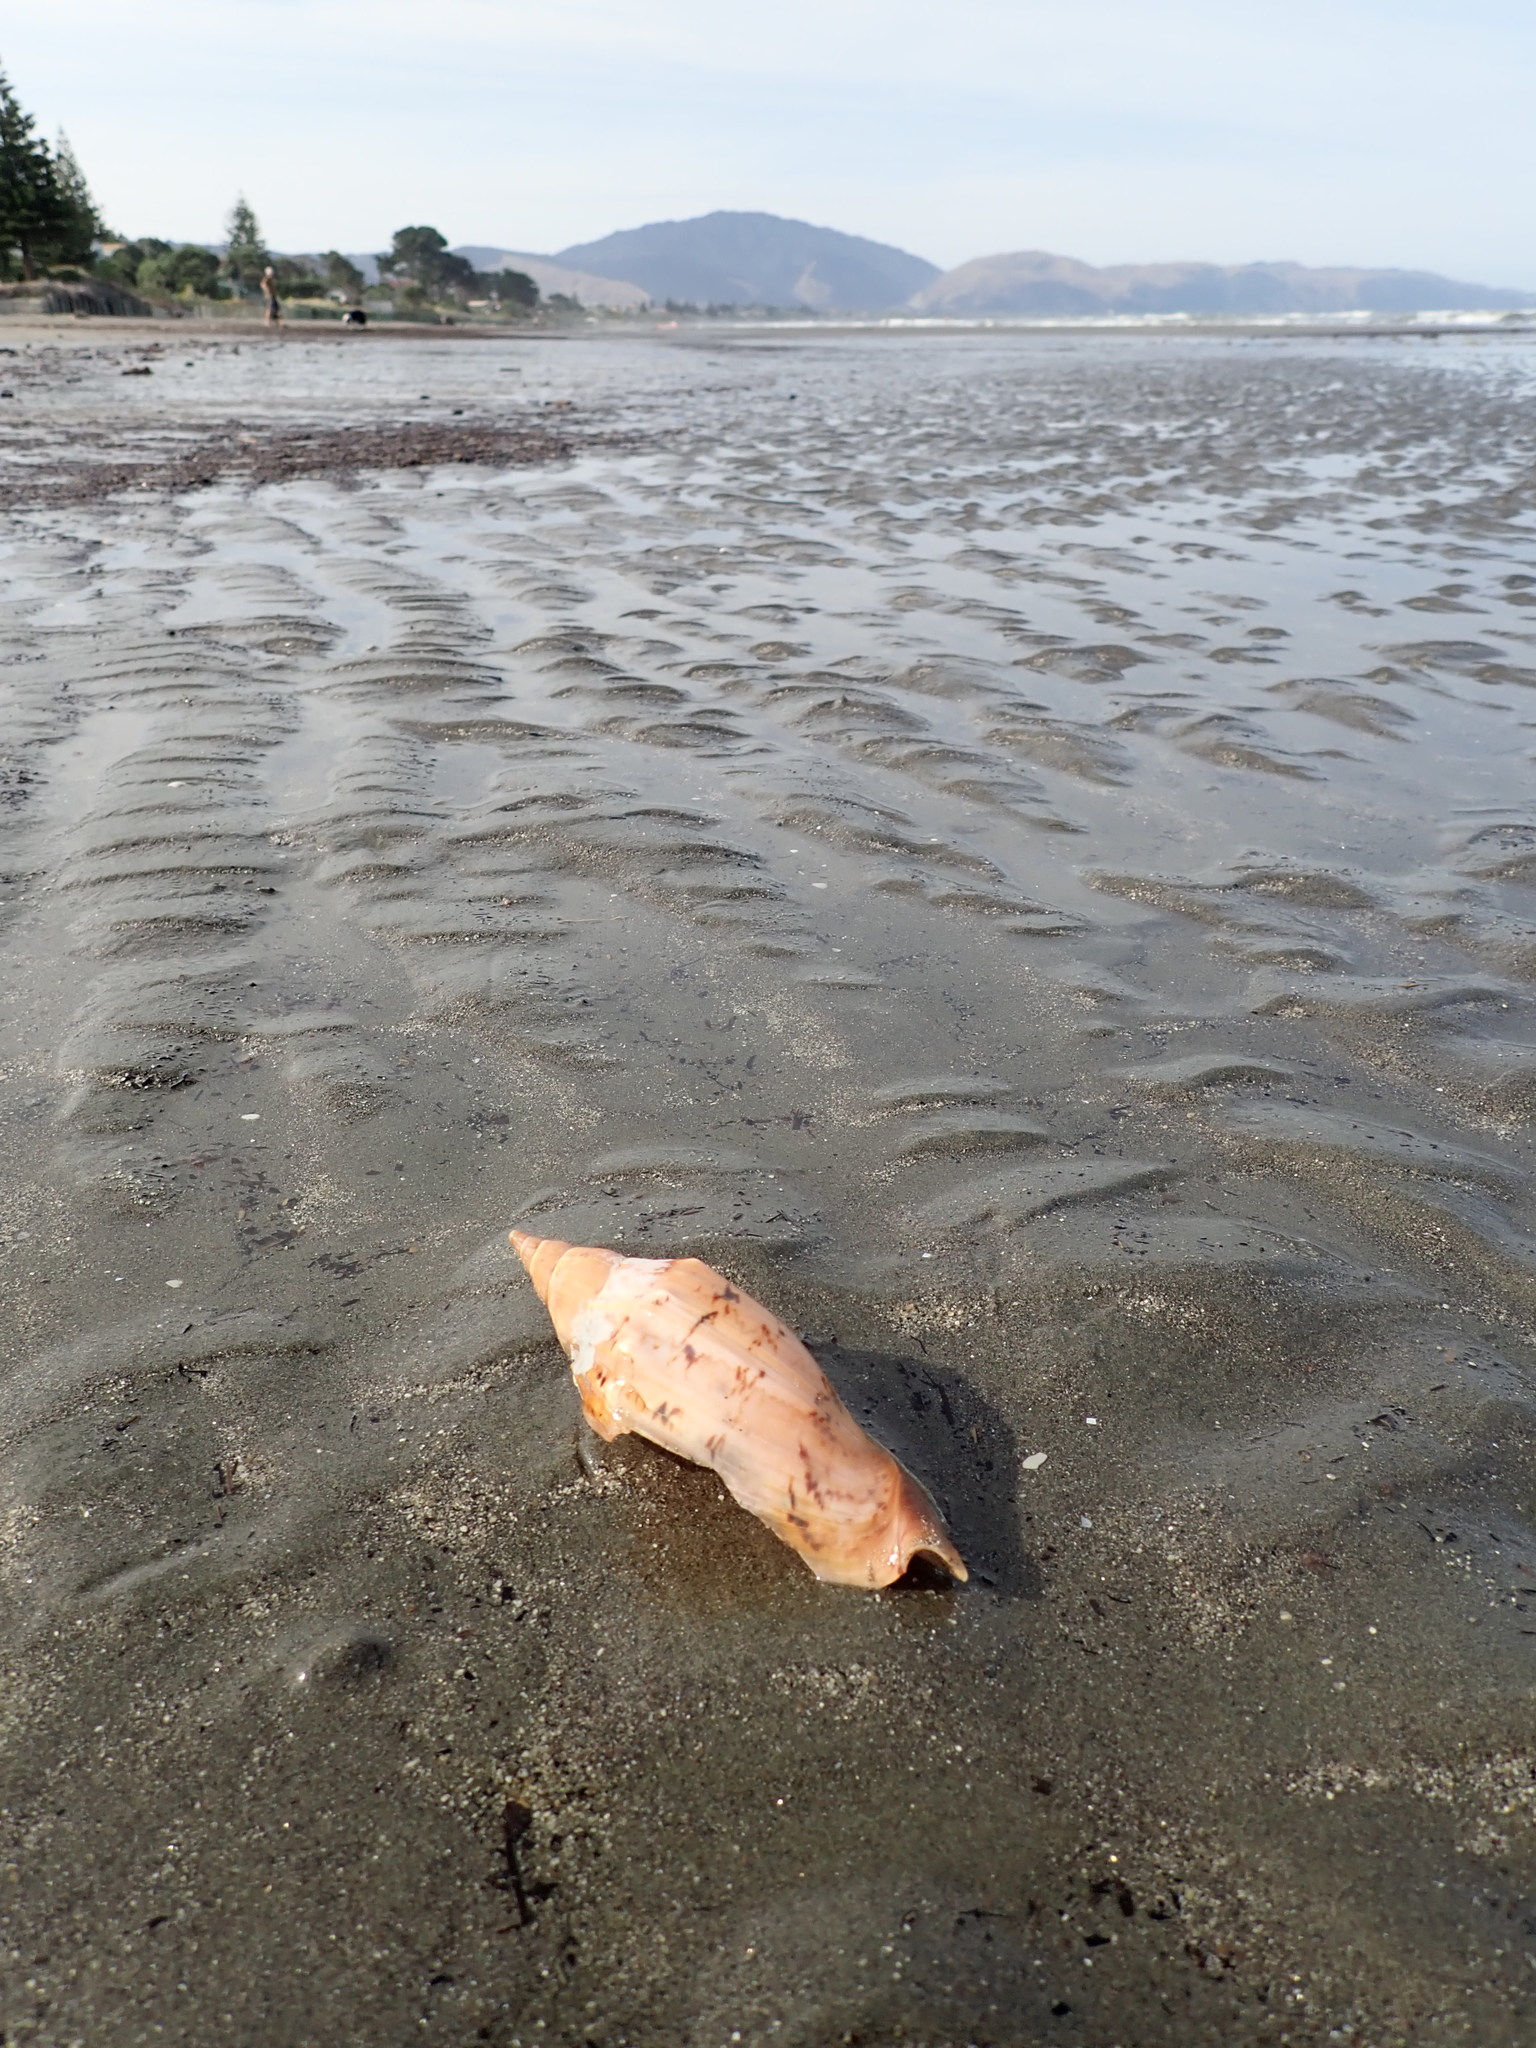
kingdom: Animalia
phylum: Mollusca
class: Gastropoda
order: Neogastropoda
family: Volutidae
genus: Alcithoe
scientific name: Alcithoe arabica
